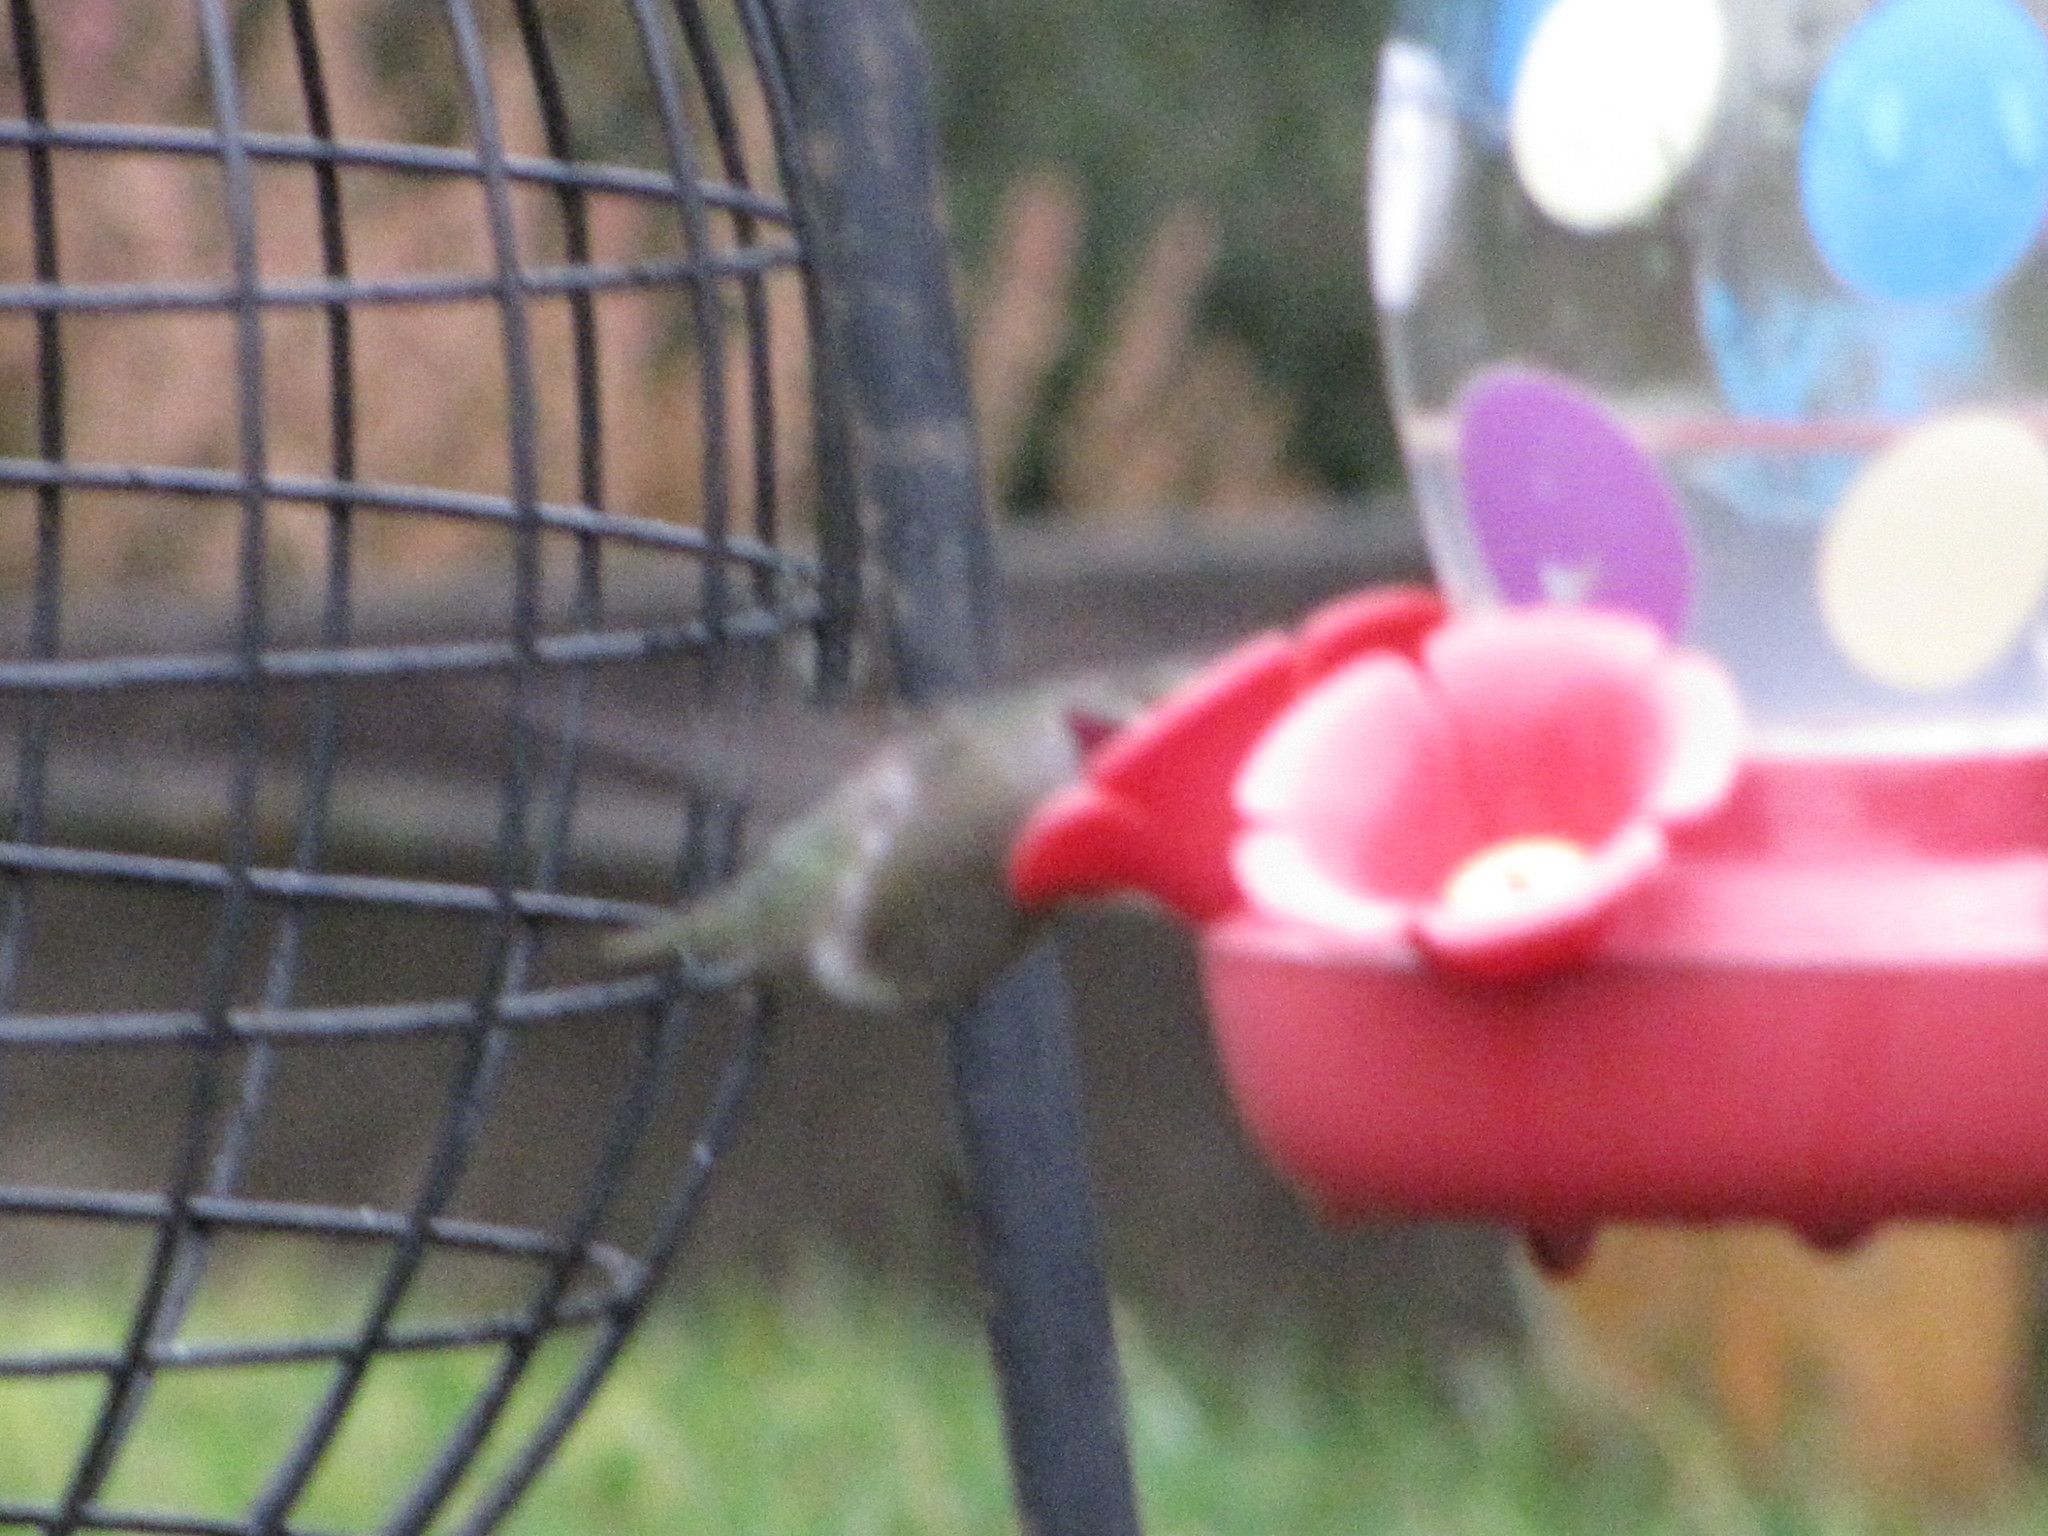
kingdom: Animalia
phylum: Chordata
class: Aves
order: Apodiformes
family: Trochilidae
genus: Calypte
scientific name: Calypte anna
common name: Anna's hummingbird
